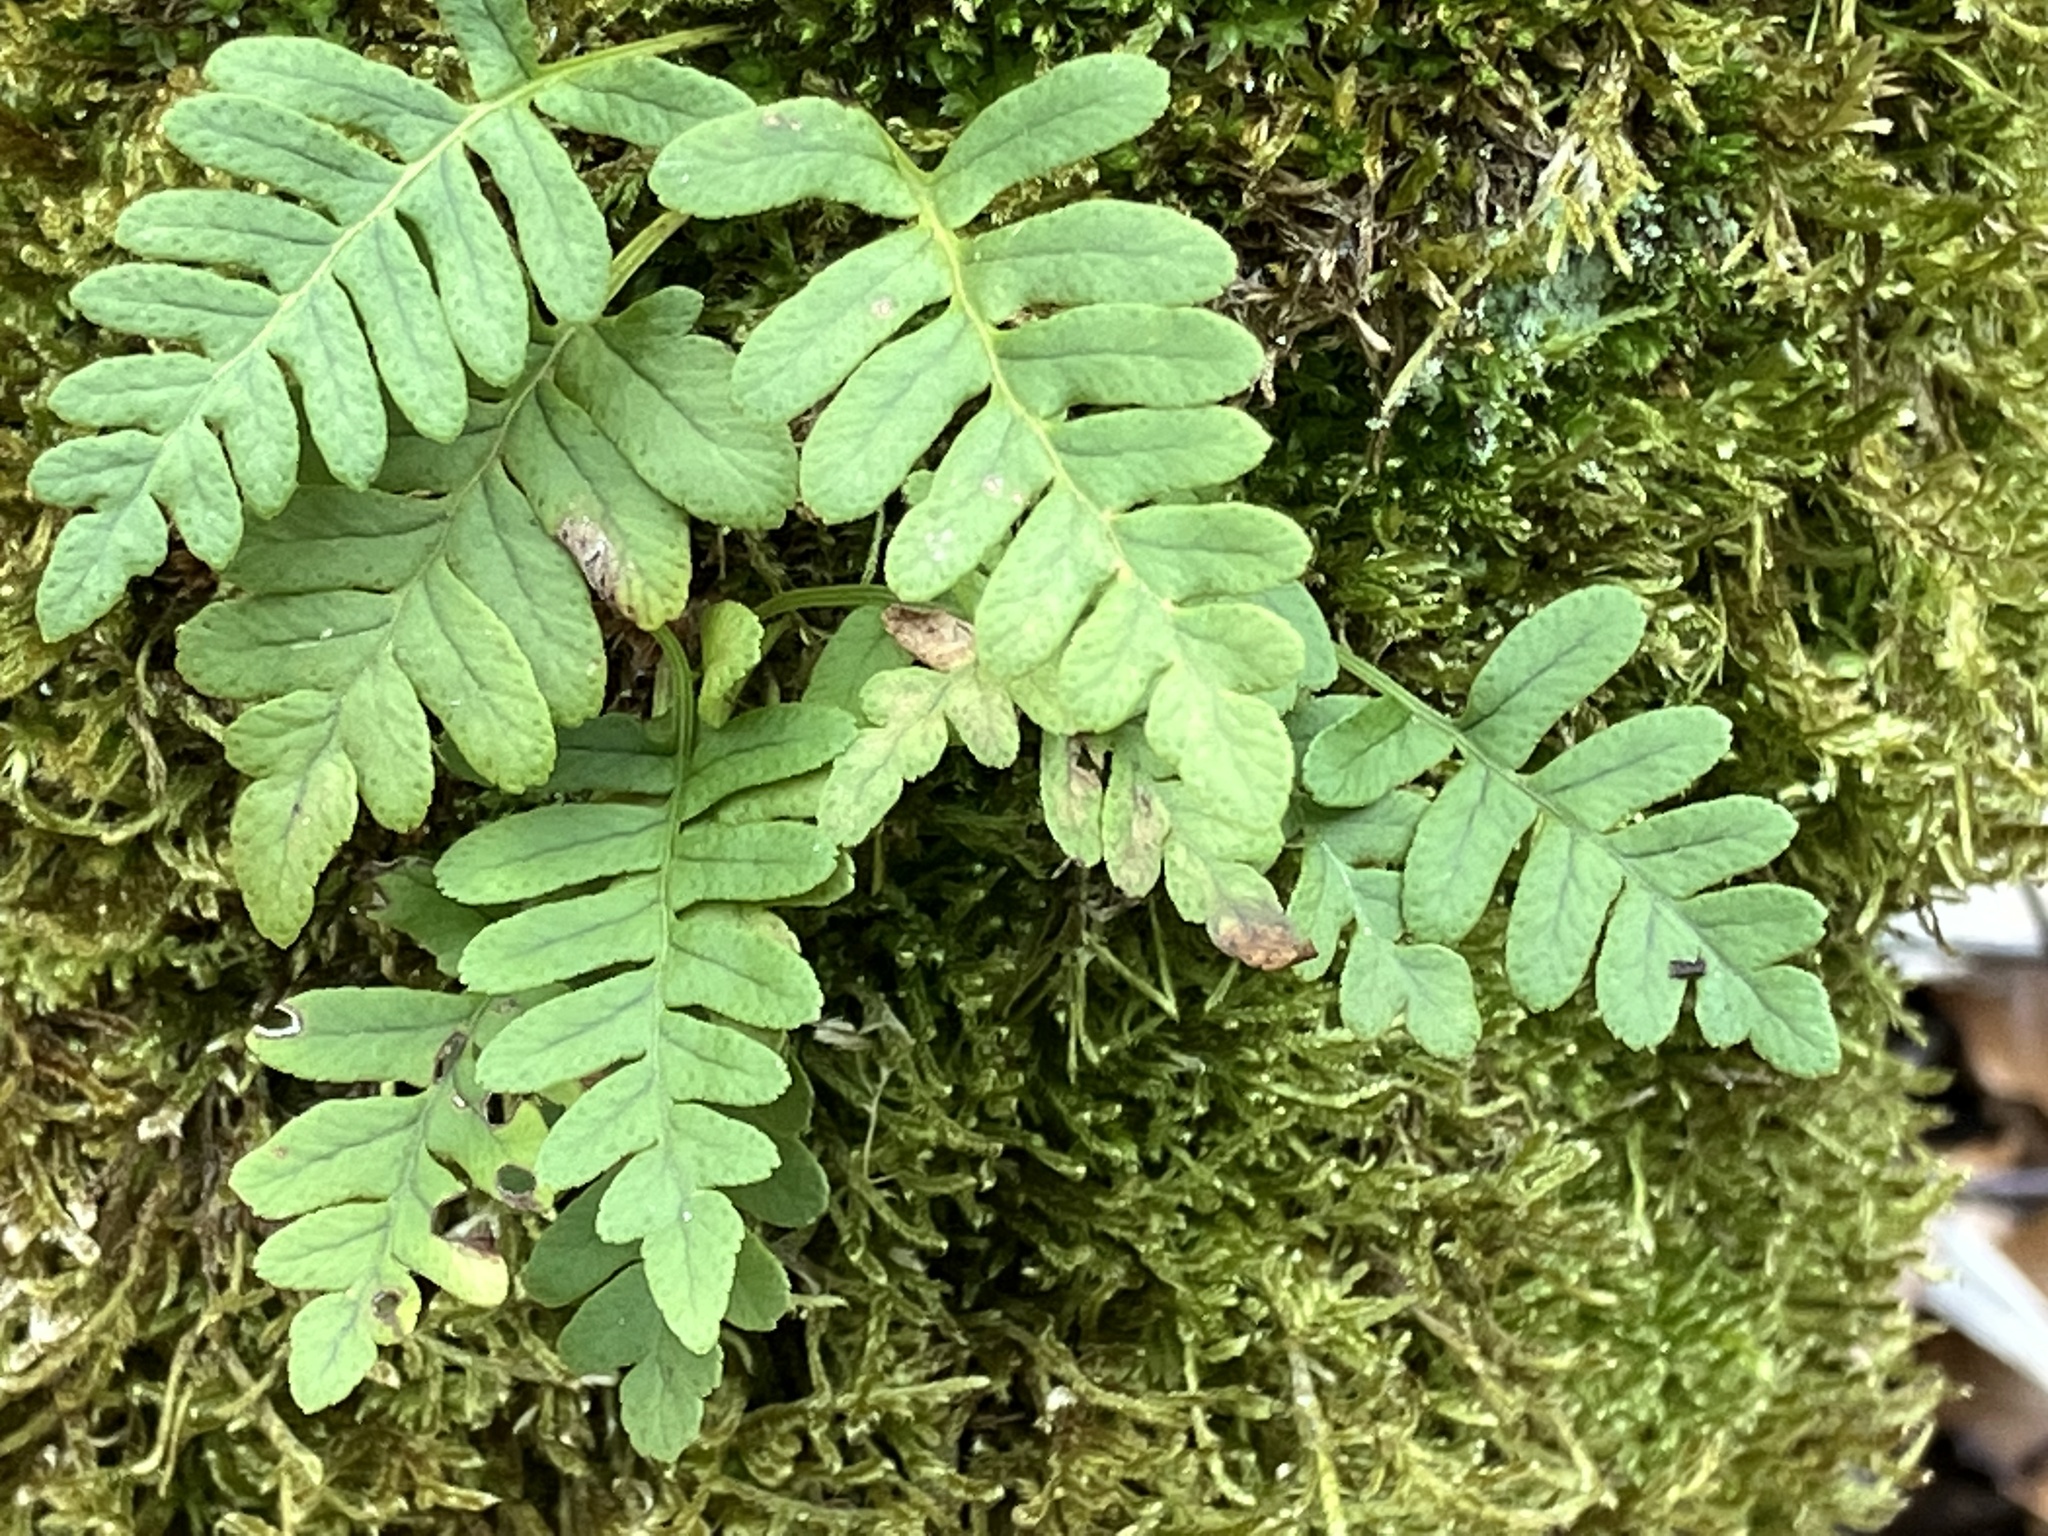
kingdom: Plantae
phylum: Tracheophyta
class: Polypodiopsida
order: Polypodiales
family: Polypodiaceae
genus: Polypodium
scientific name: Polypodium vulgare
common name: Common polypody
